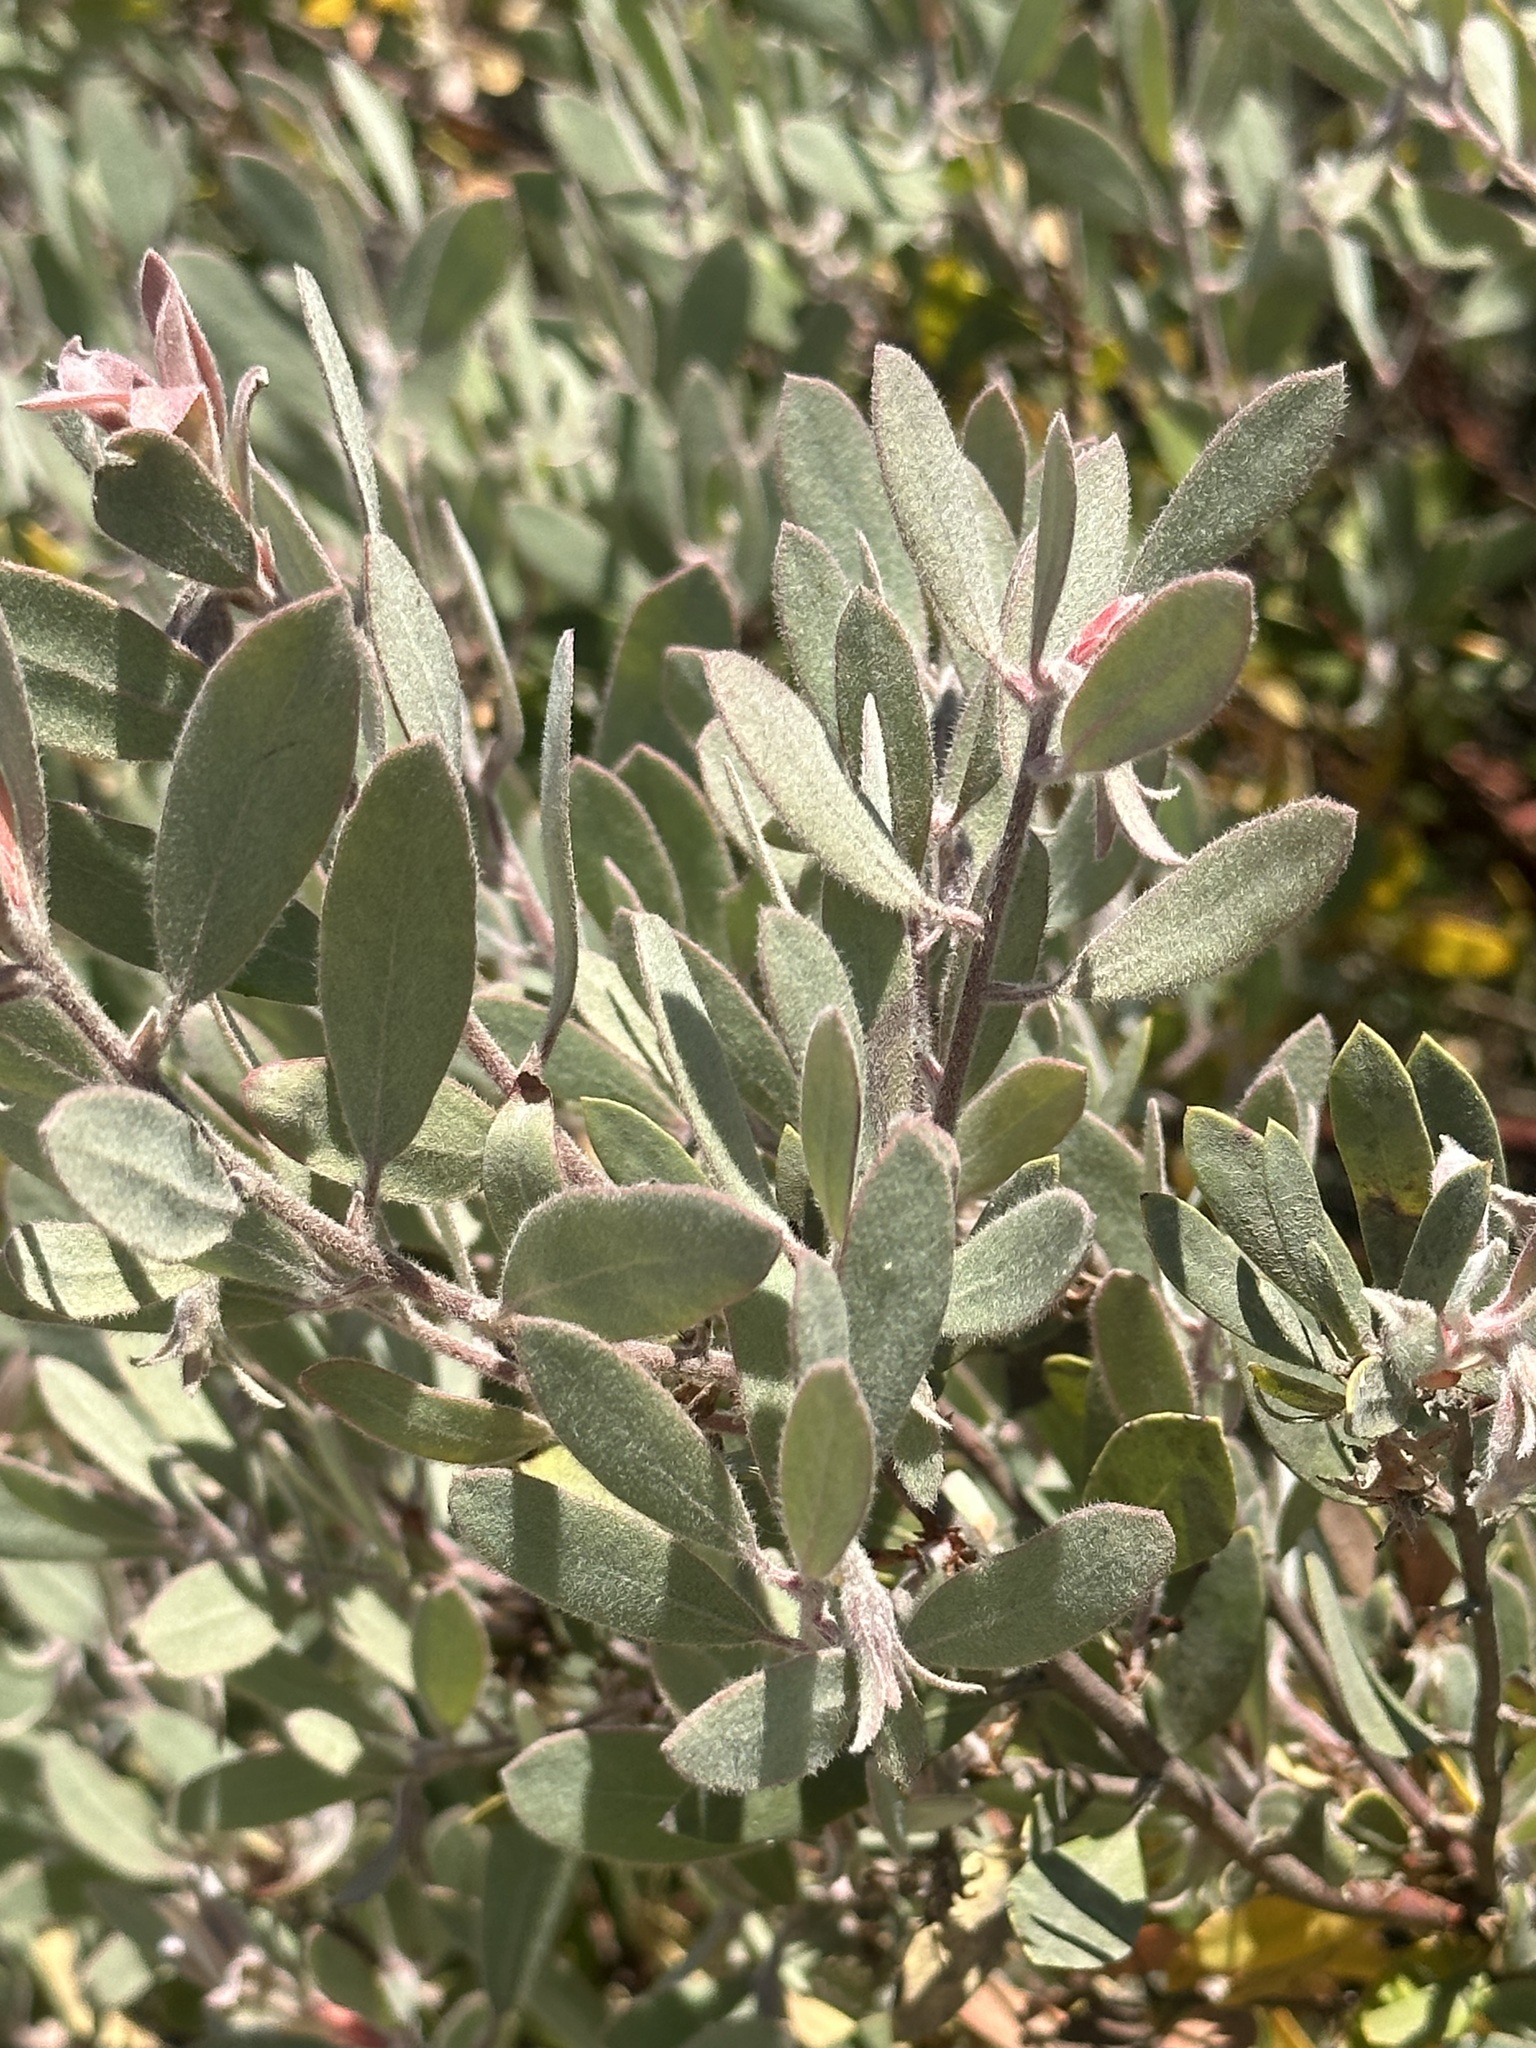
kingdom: Plantae
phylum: Tracheophyta
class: Magnoliopsida
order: Ericales
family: Ericaceae
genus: Arctostaphylos
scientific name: Arctostaphylos silvicola
